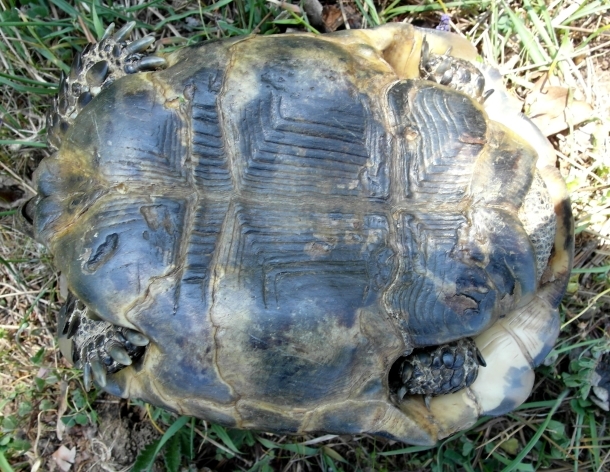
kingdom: Animalia
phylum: Chordata
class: Testudines
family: Testudinidae
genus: Testudo
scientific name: Testudo graeca
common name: Common tortoise
